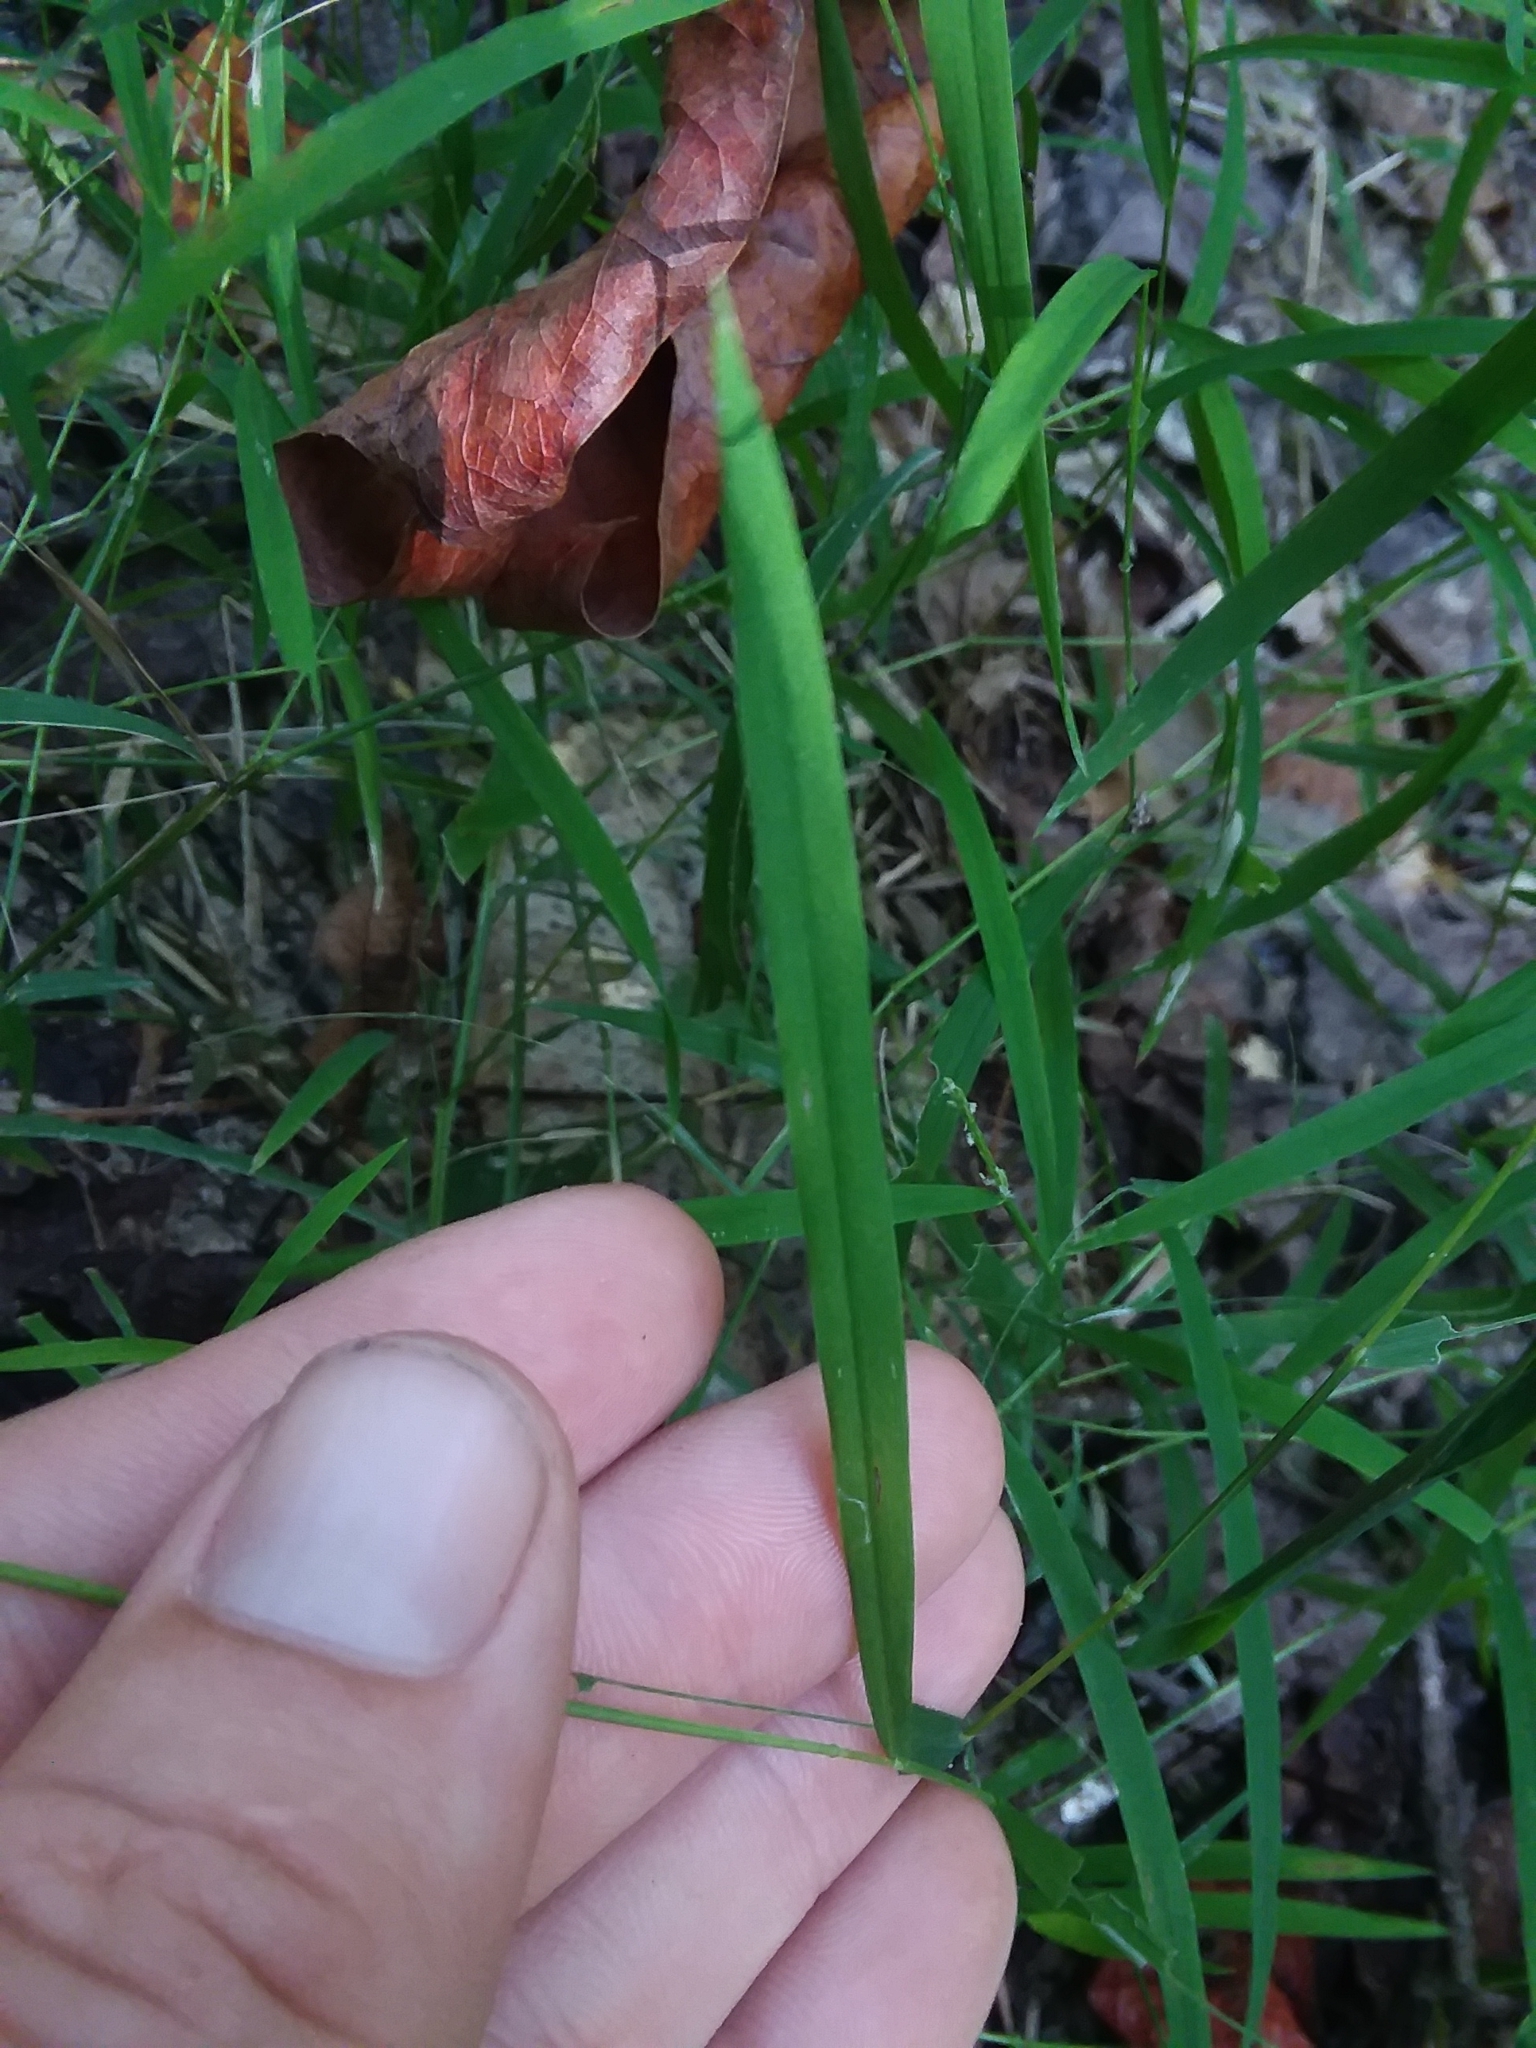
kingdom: Plantae
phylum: Tracheophyta
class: Liliopsida
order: Poales
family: Poaceae
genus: Leersia
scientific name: Leersia virginica
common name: White cutgrass
